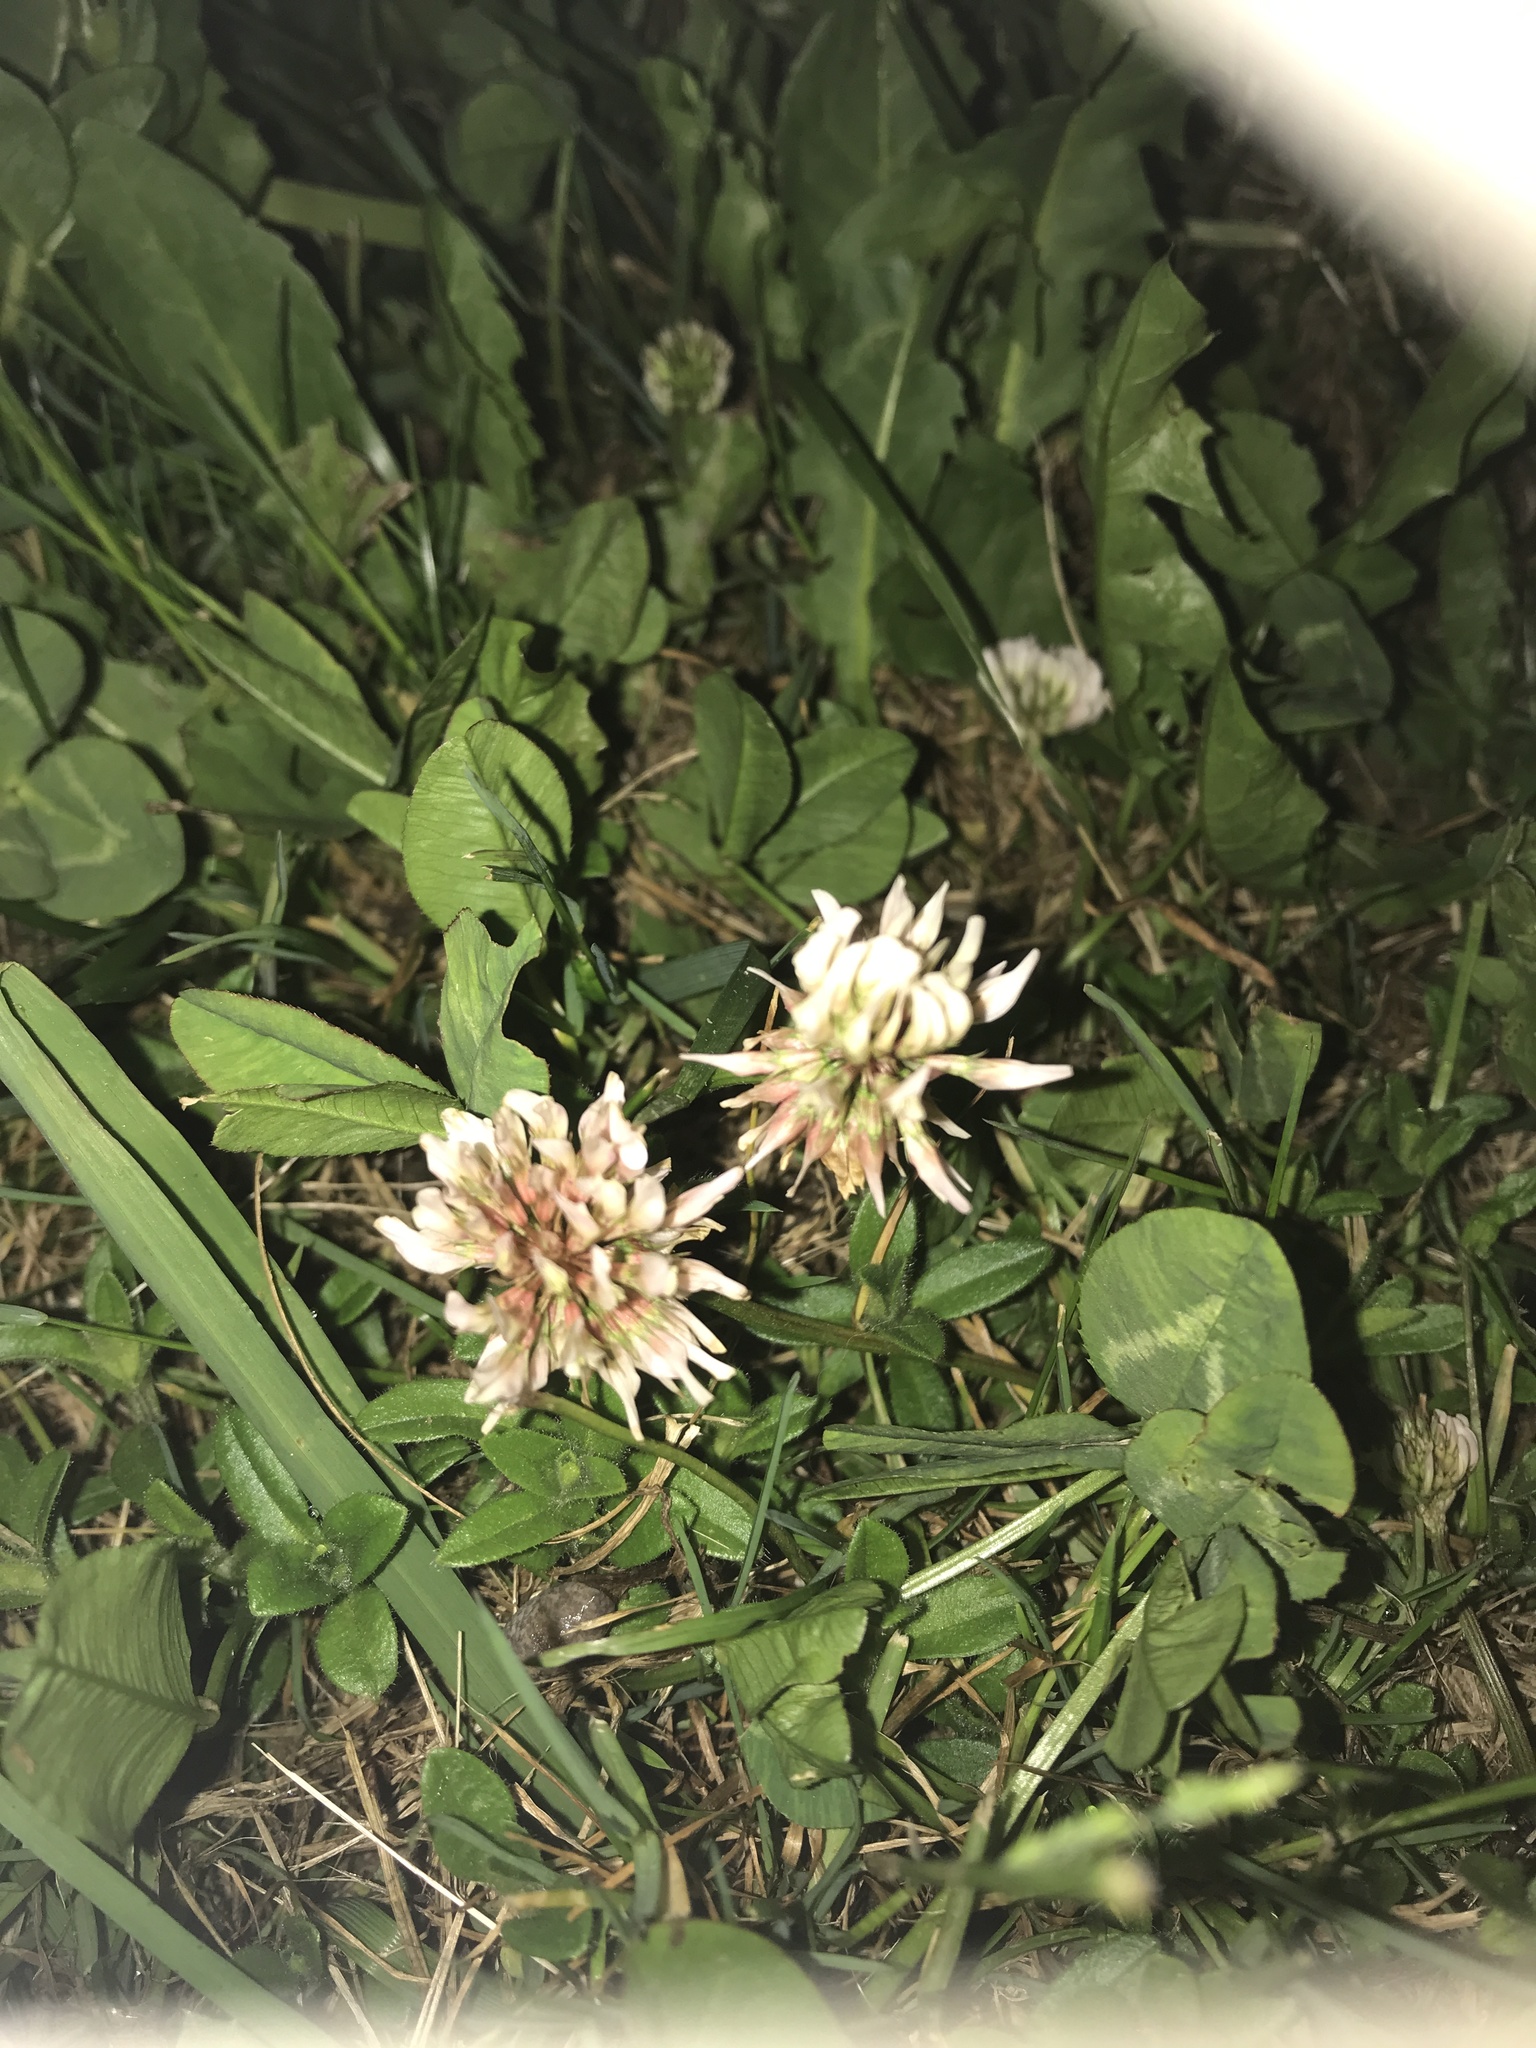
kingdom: Plantae
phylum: Tracheophyta
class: Magnoliopsida
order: Fabales
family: Fabaceae
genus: Trifolium
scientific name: Trifolium repens
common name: White clover
